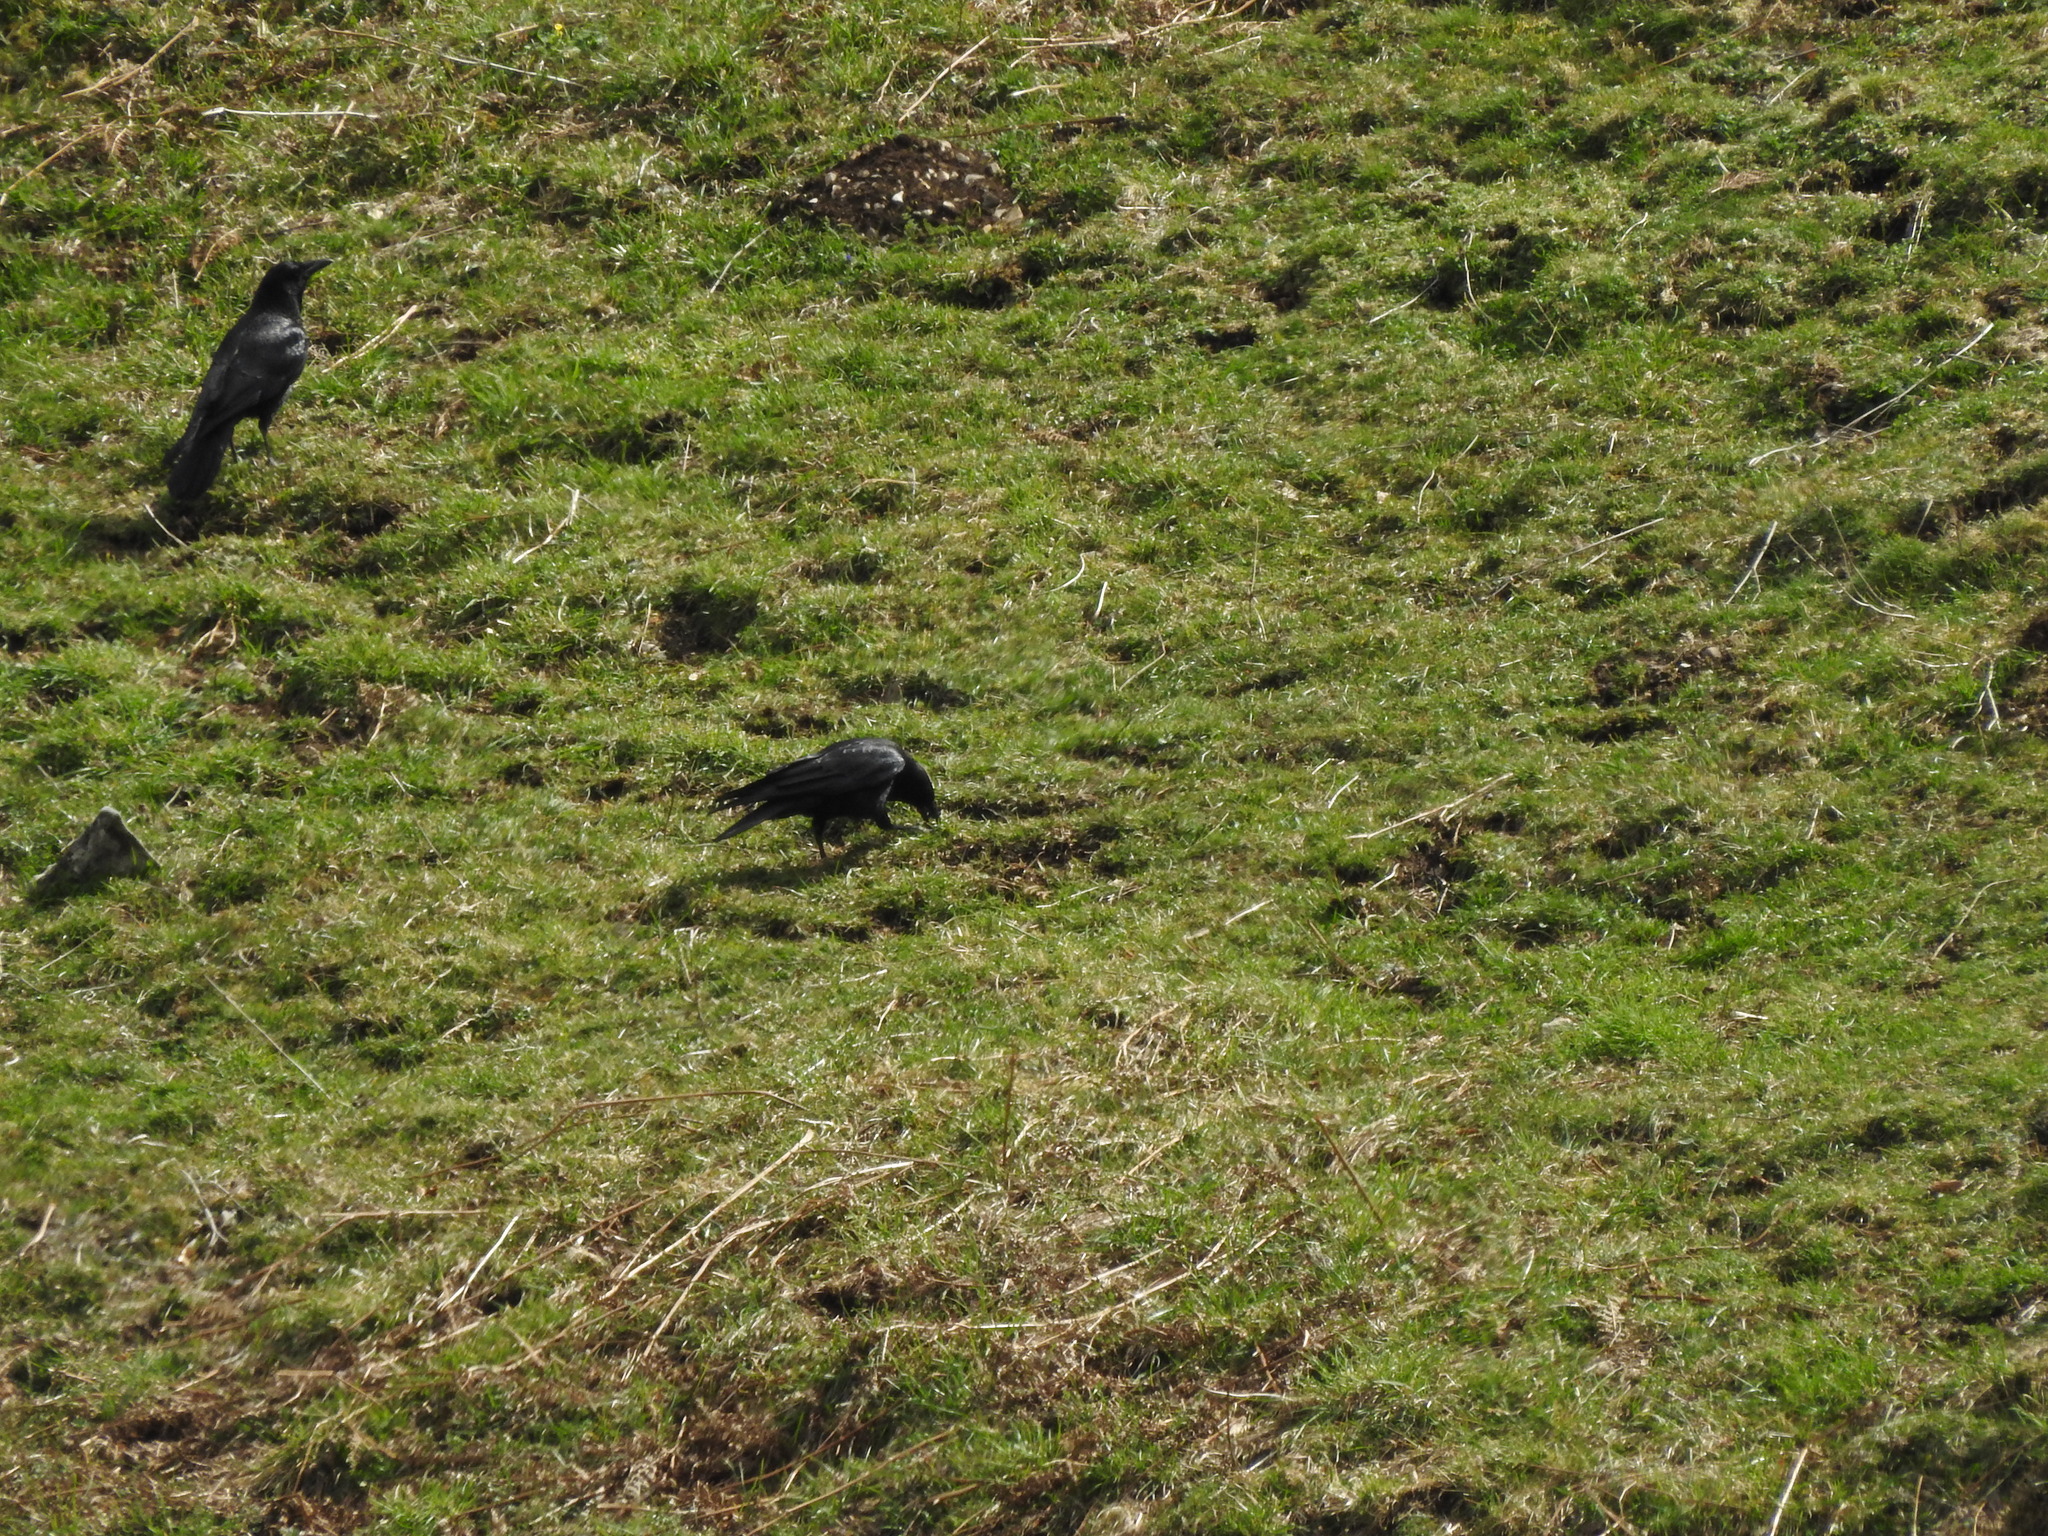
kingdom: Animalia
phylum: Chordata
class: Aves
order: Passeriformes
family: Corvidae
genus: Corvus
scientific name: Corvus corone
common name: Carrion crow
